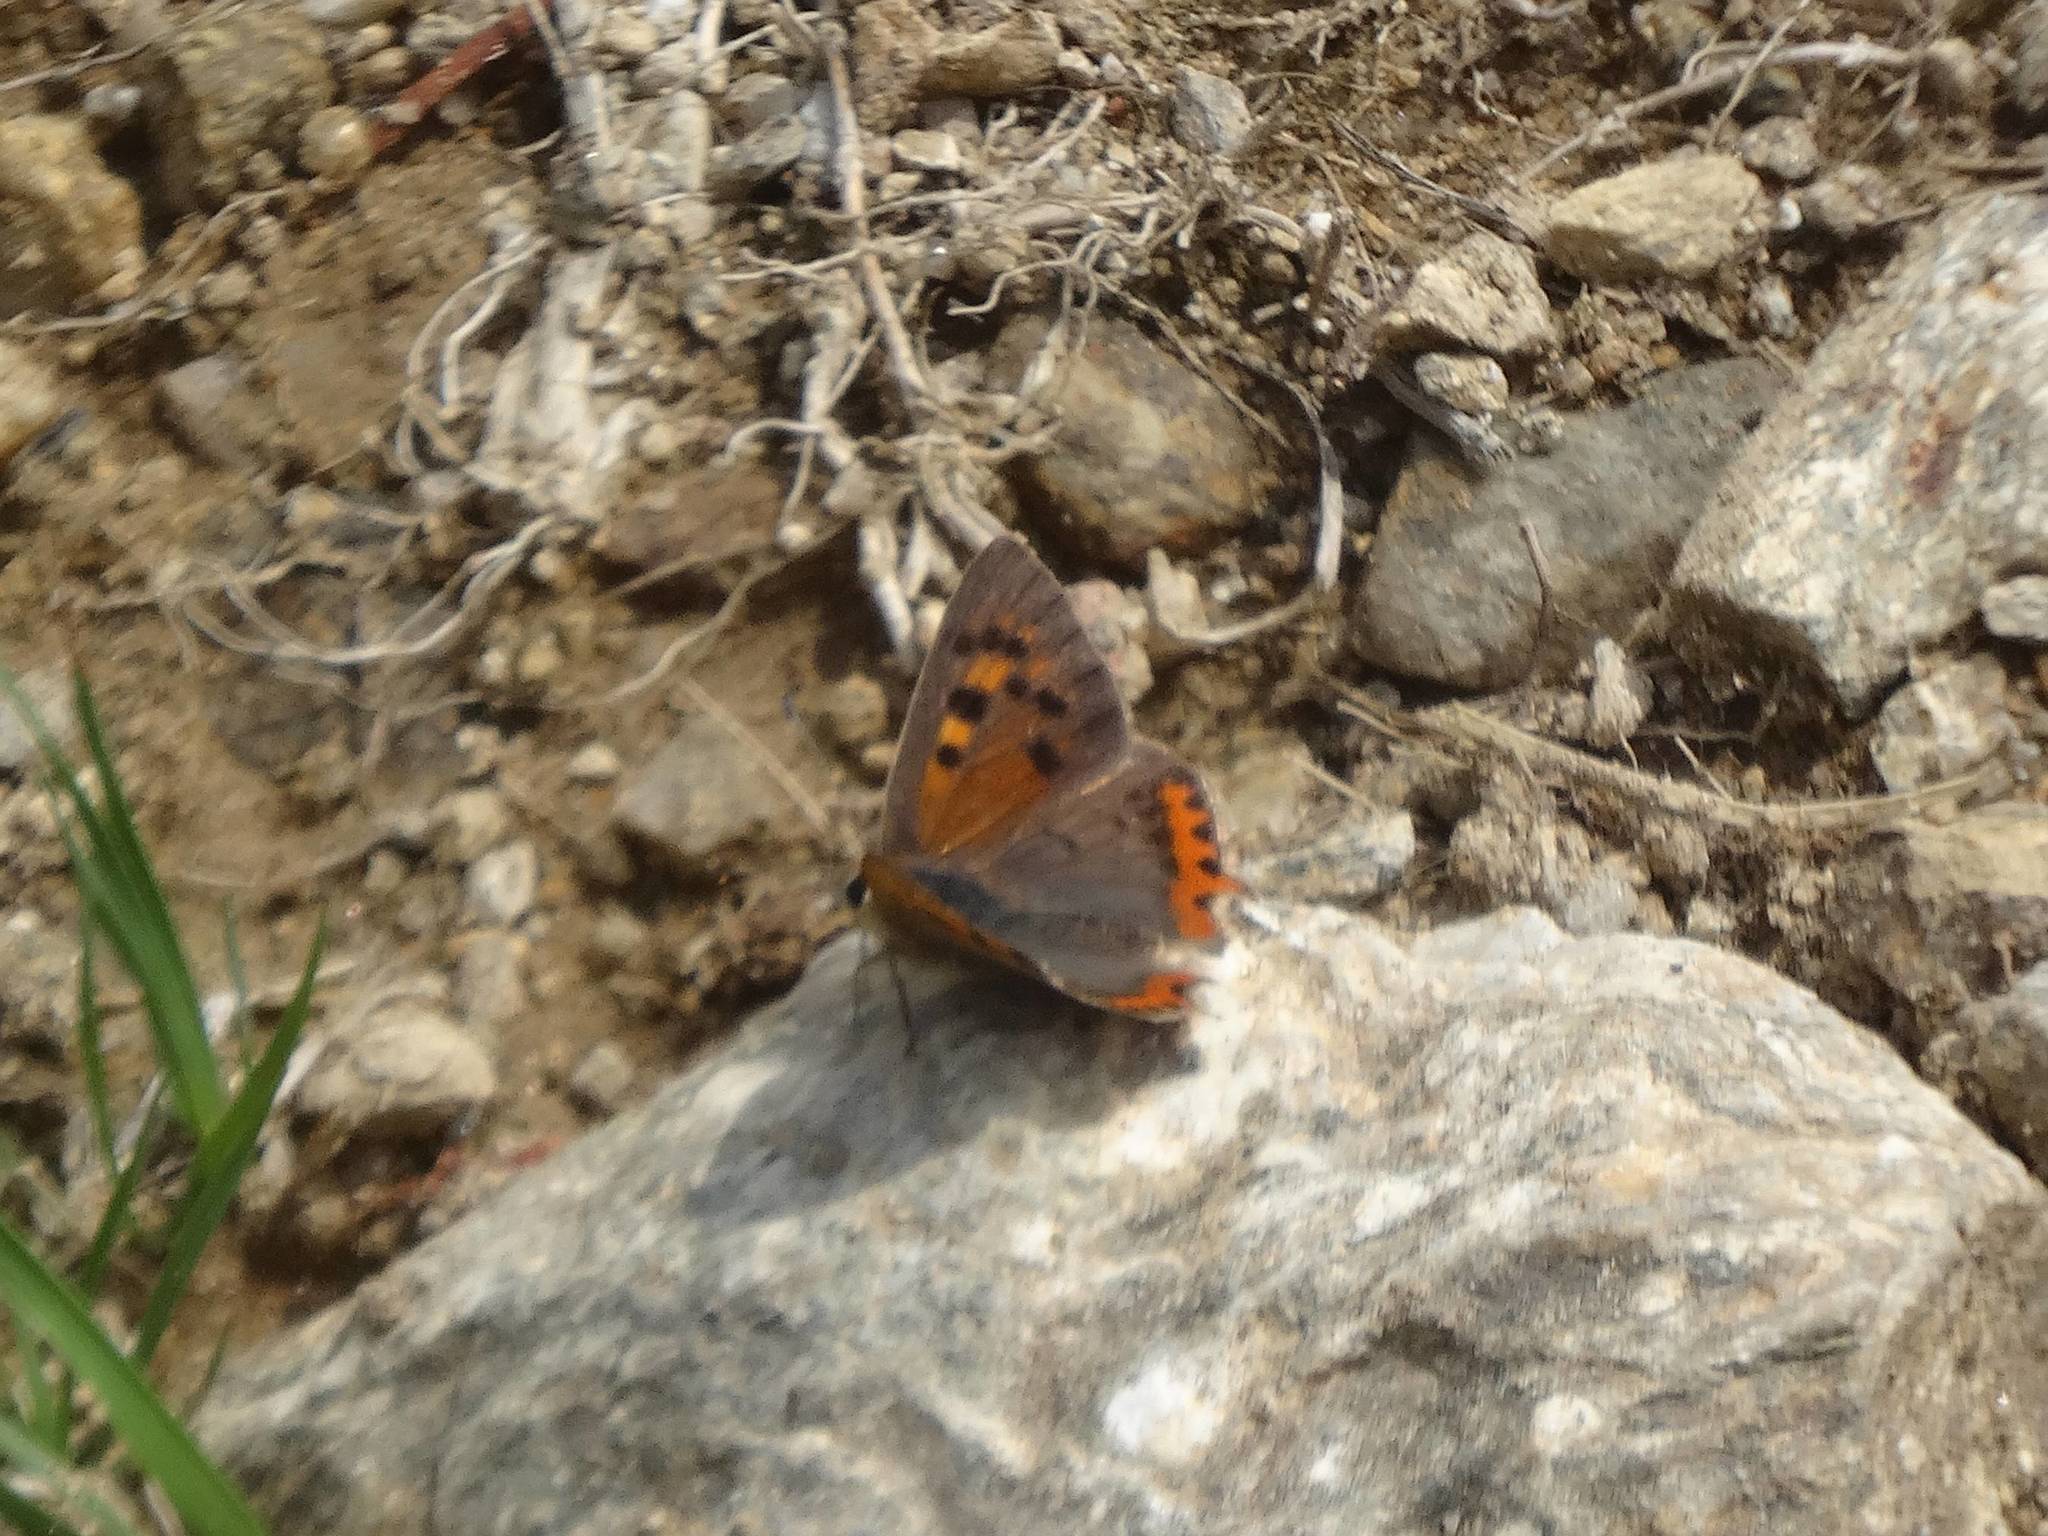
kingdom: Animalia
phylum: Arthropoda
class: Insecta
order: Lepidoptera
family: Lycaenidae
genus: Lycaena
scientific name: Lycaena phlaeas
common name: Small copper
